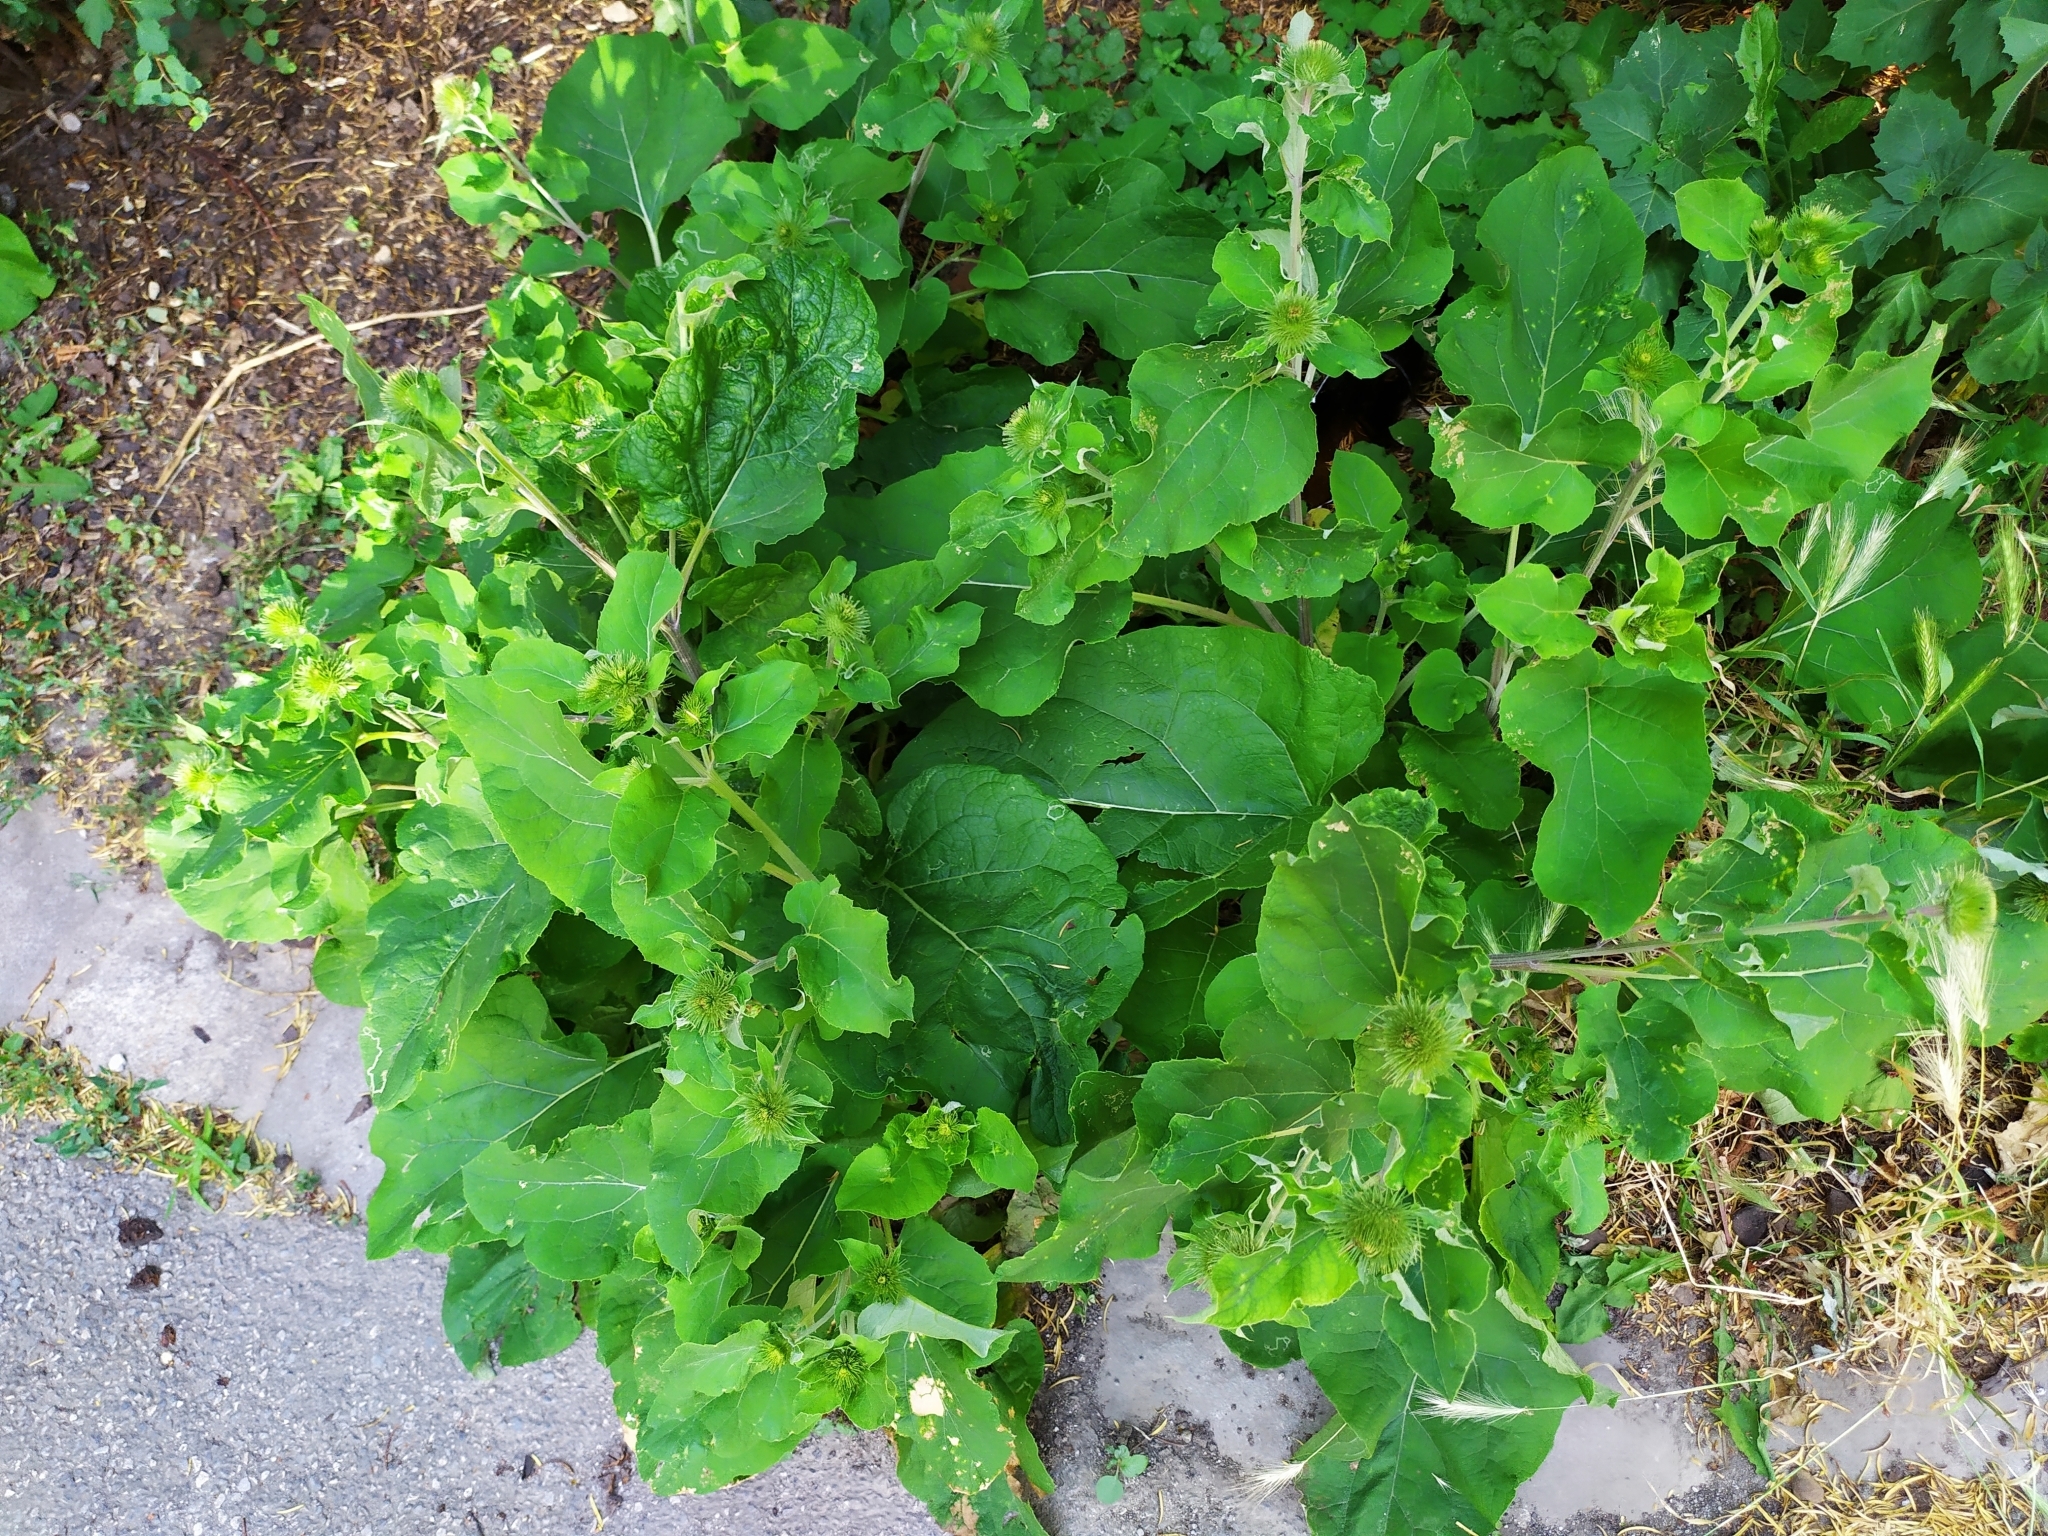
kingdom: Plantae
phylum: Tracheophyta
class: Magnoliopsida
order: Asterales
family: Asteraceae
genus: Arctium
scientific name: Arctium lappa
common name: Greater burdock
